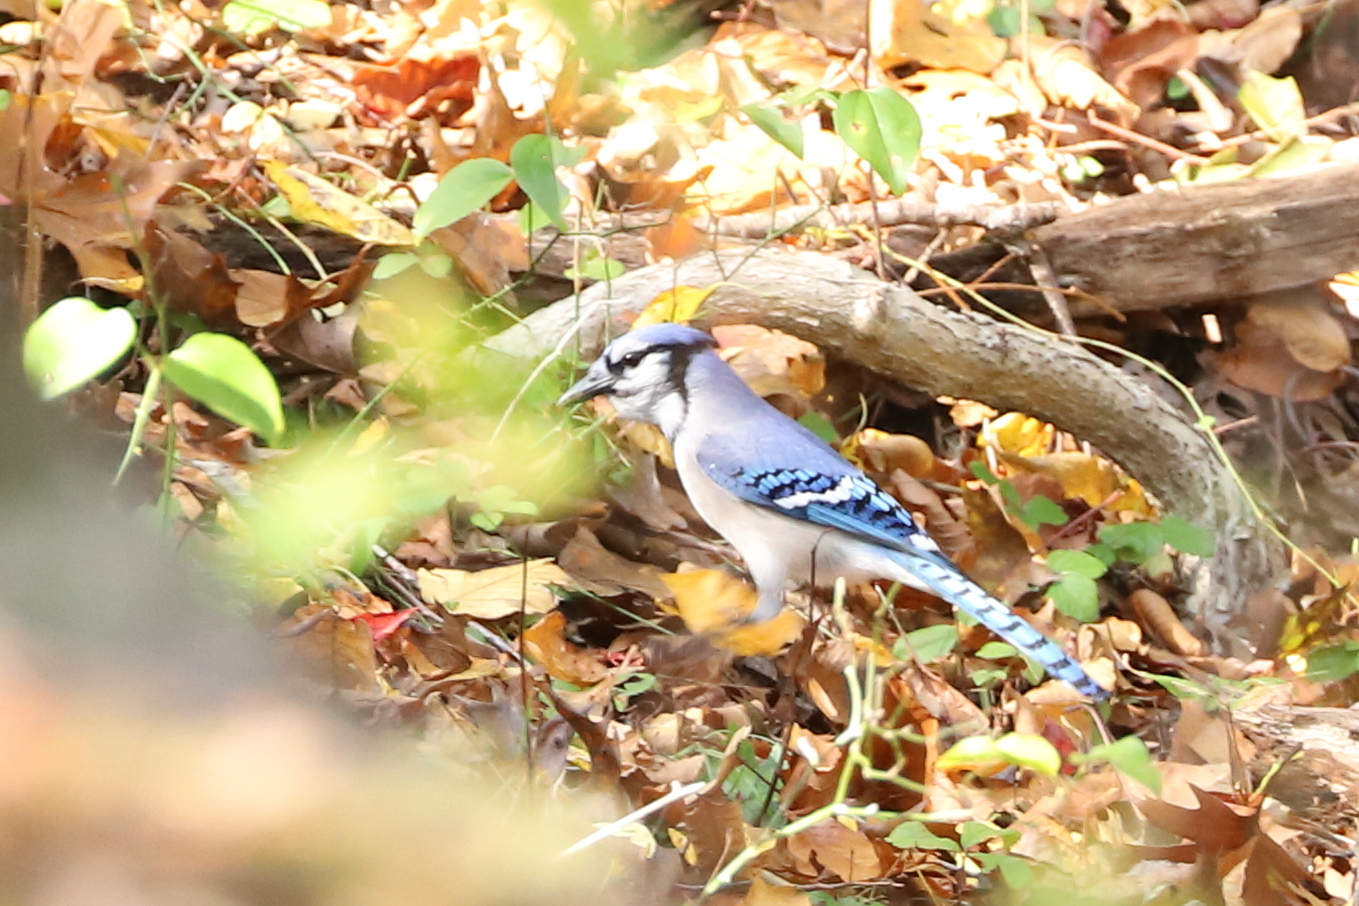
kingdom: Animalia
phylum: Chordata
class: Aves
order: Passeriformes
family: Corvidae
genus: Cyanocitta
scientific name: Cyanocitta cristata
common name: Blue jay
